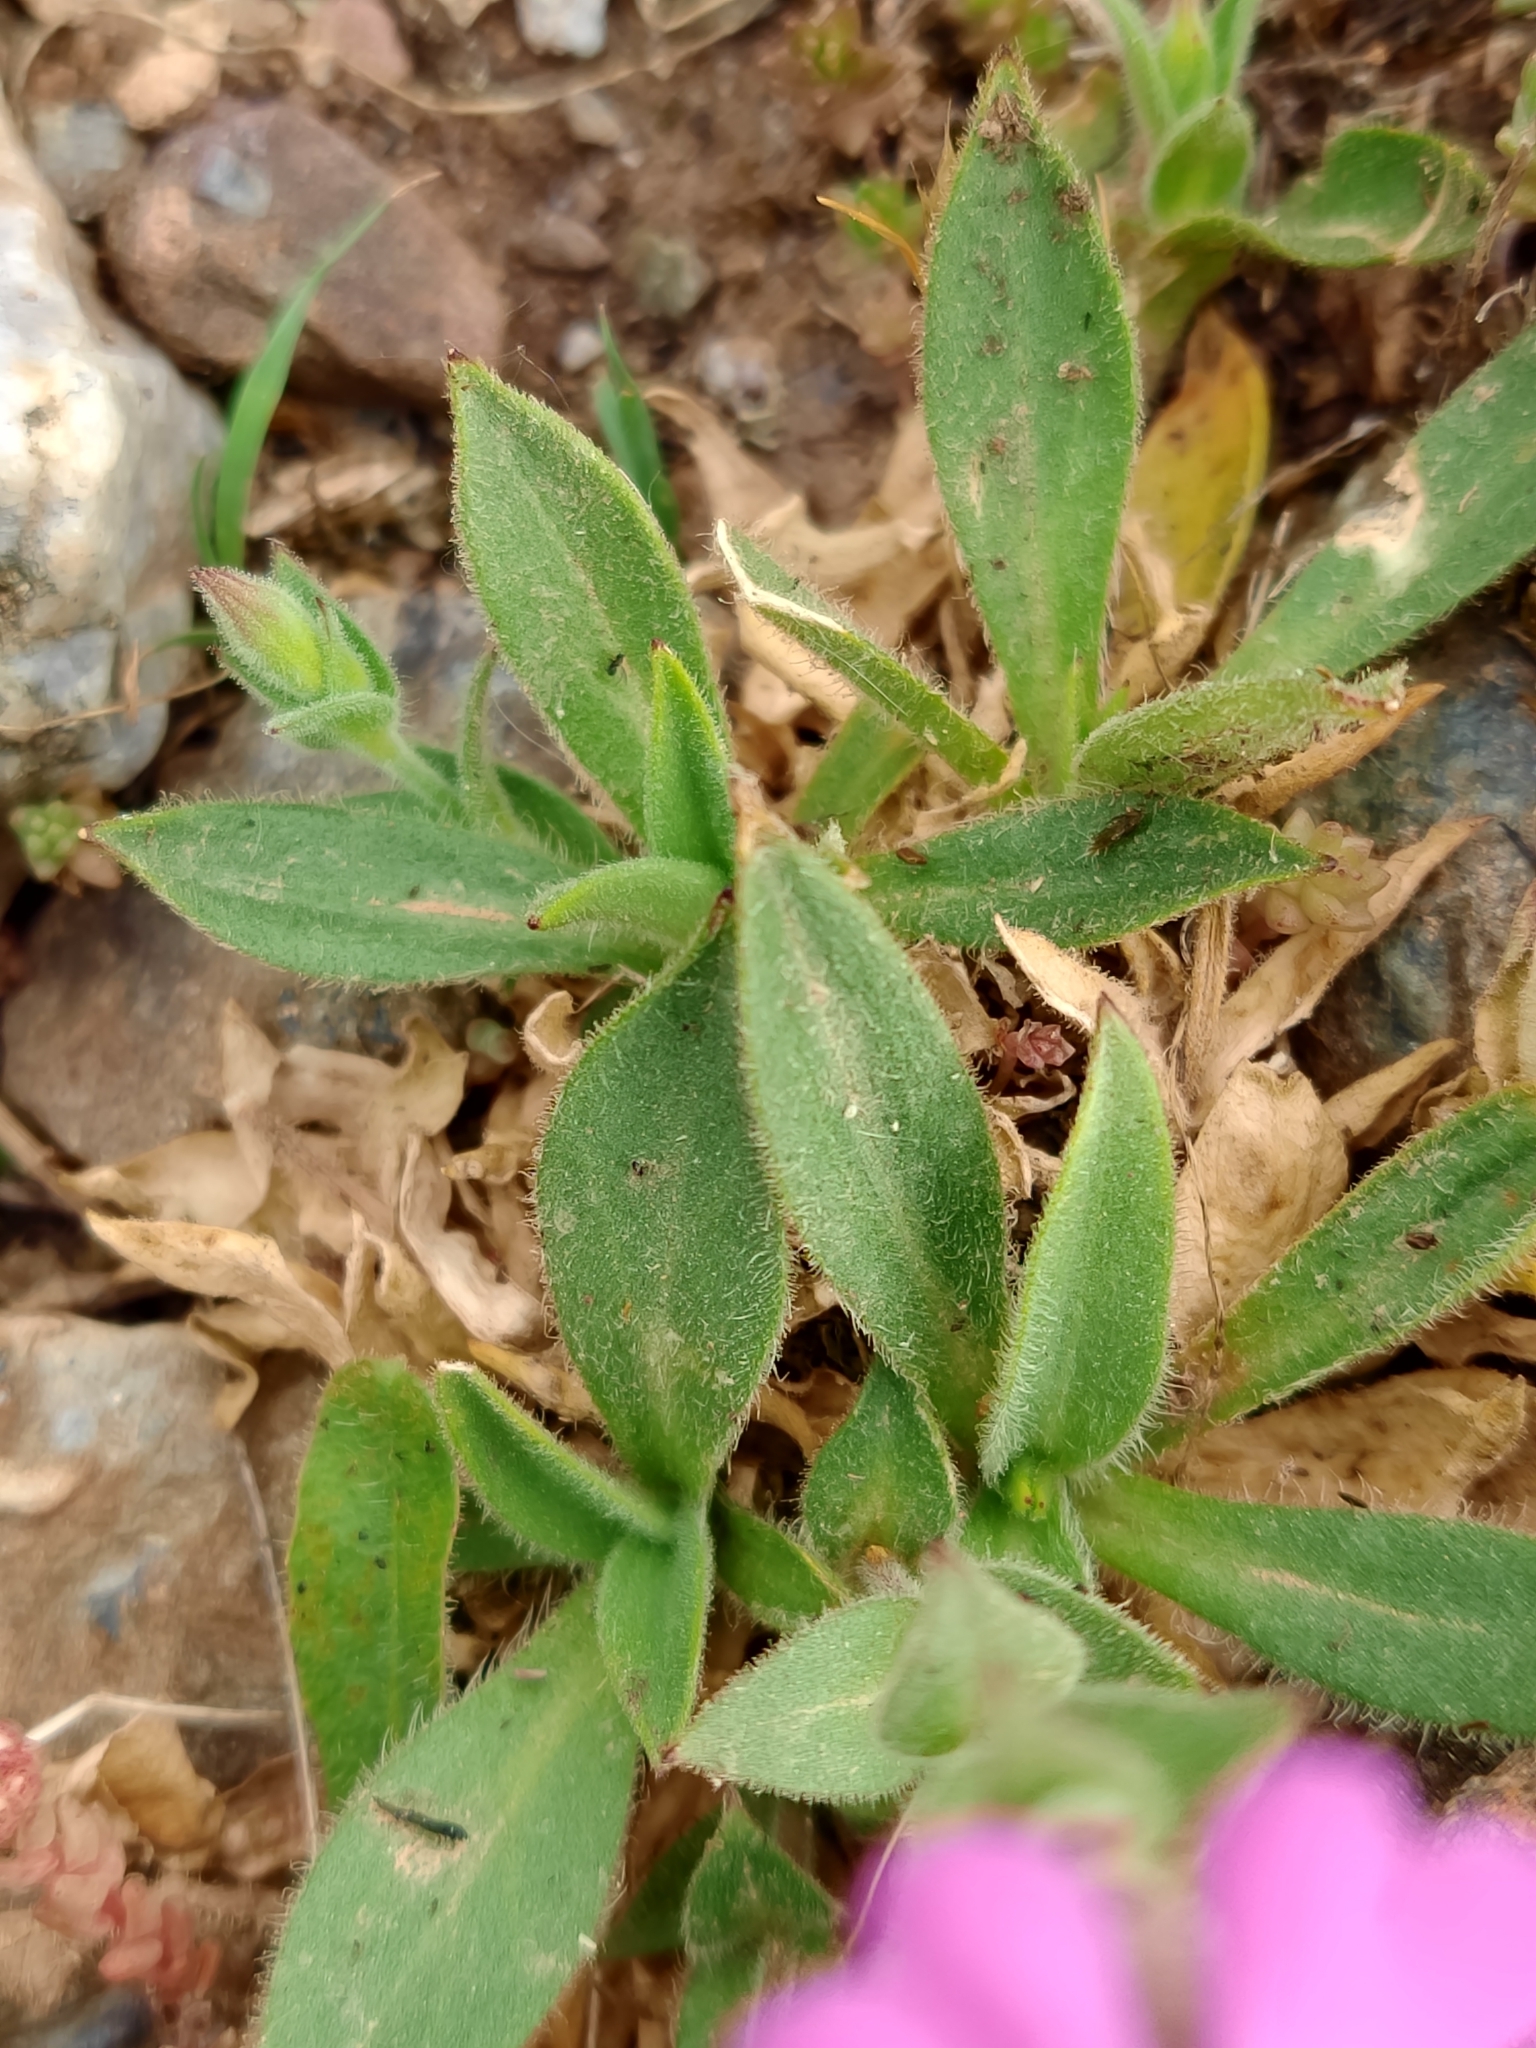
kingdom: Plantae
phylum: Tracheophyta
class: Magnoliopsida
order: Caryophyllales
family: Caryophyllaceae
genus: Silene
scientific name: Silene acutifolia
